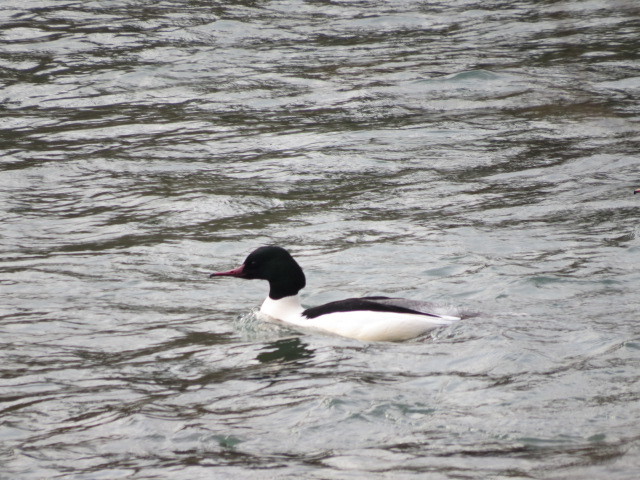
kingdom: Animalia
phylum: Chordata
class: Aves
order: Anseriformes
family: Anatidae
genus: Mergus
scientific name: Mergus merganser
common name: Common merganser
